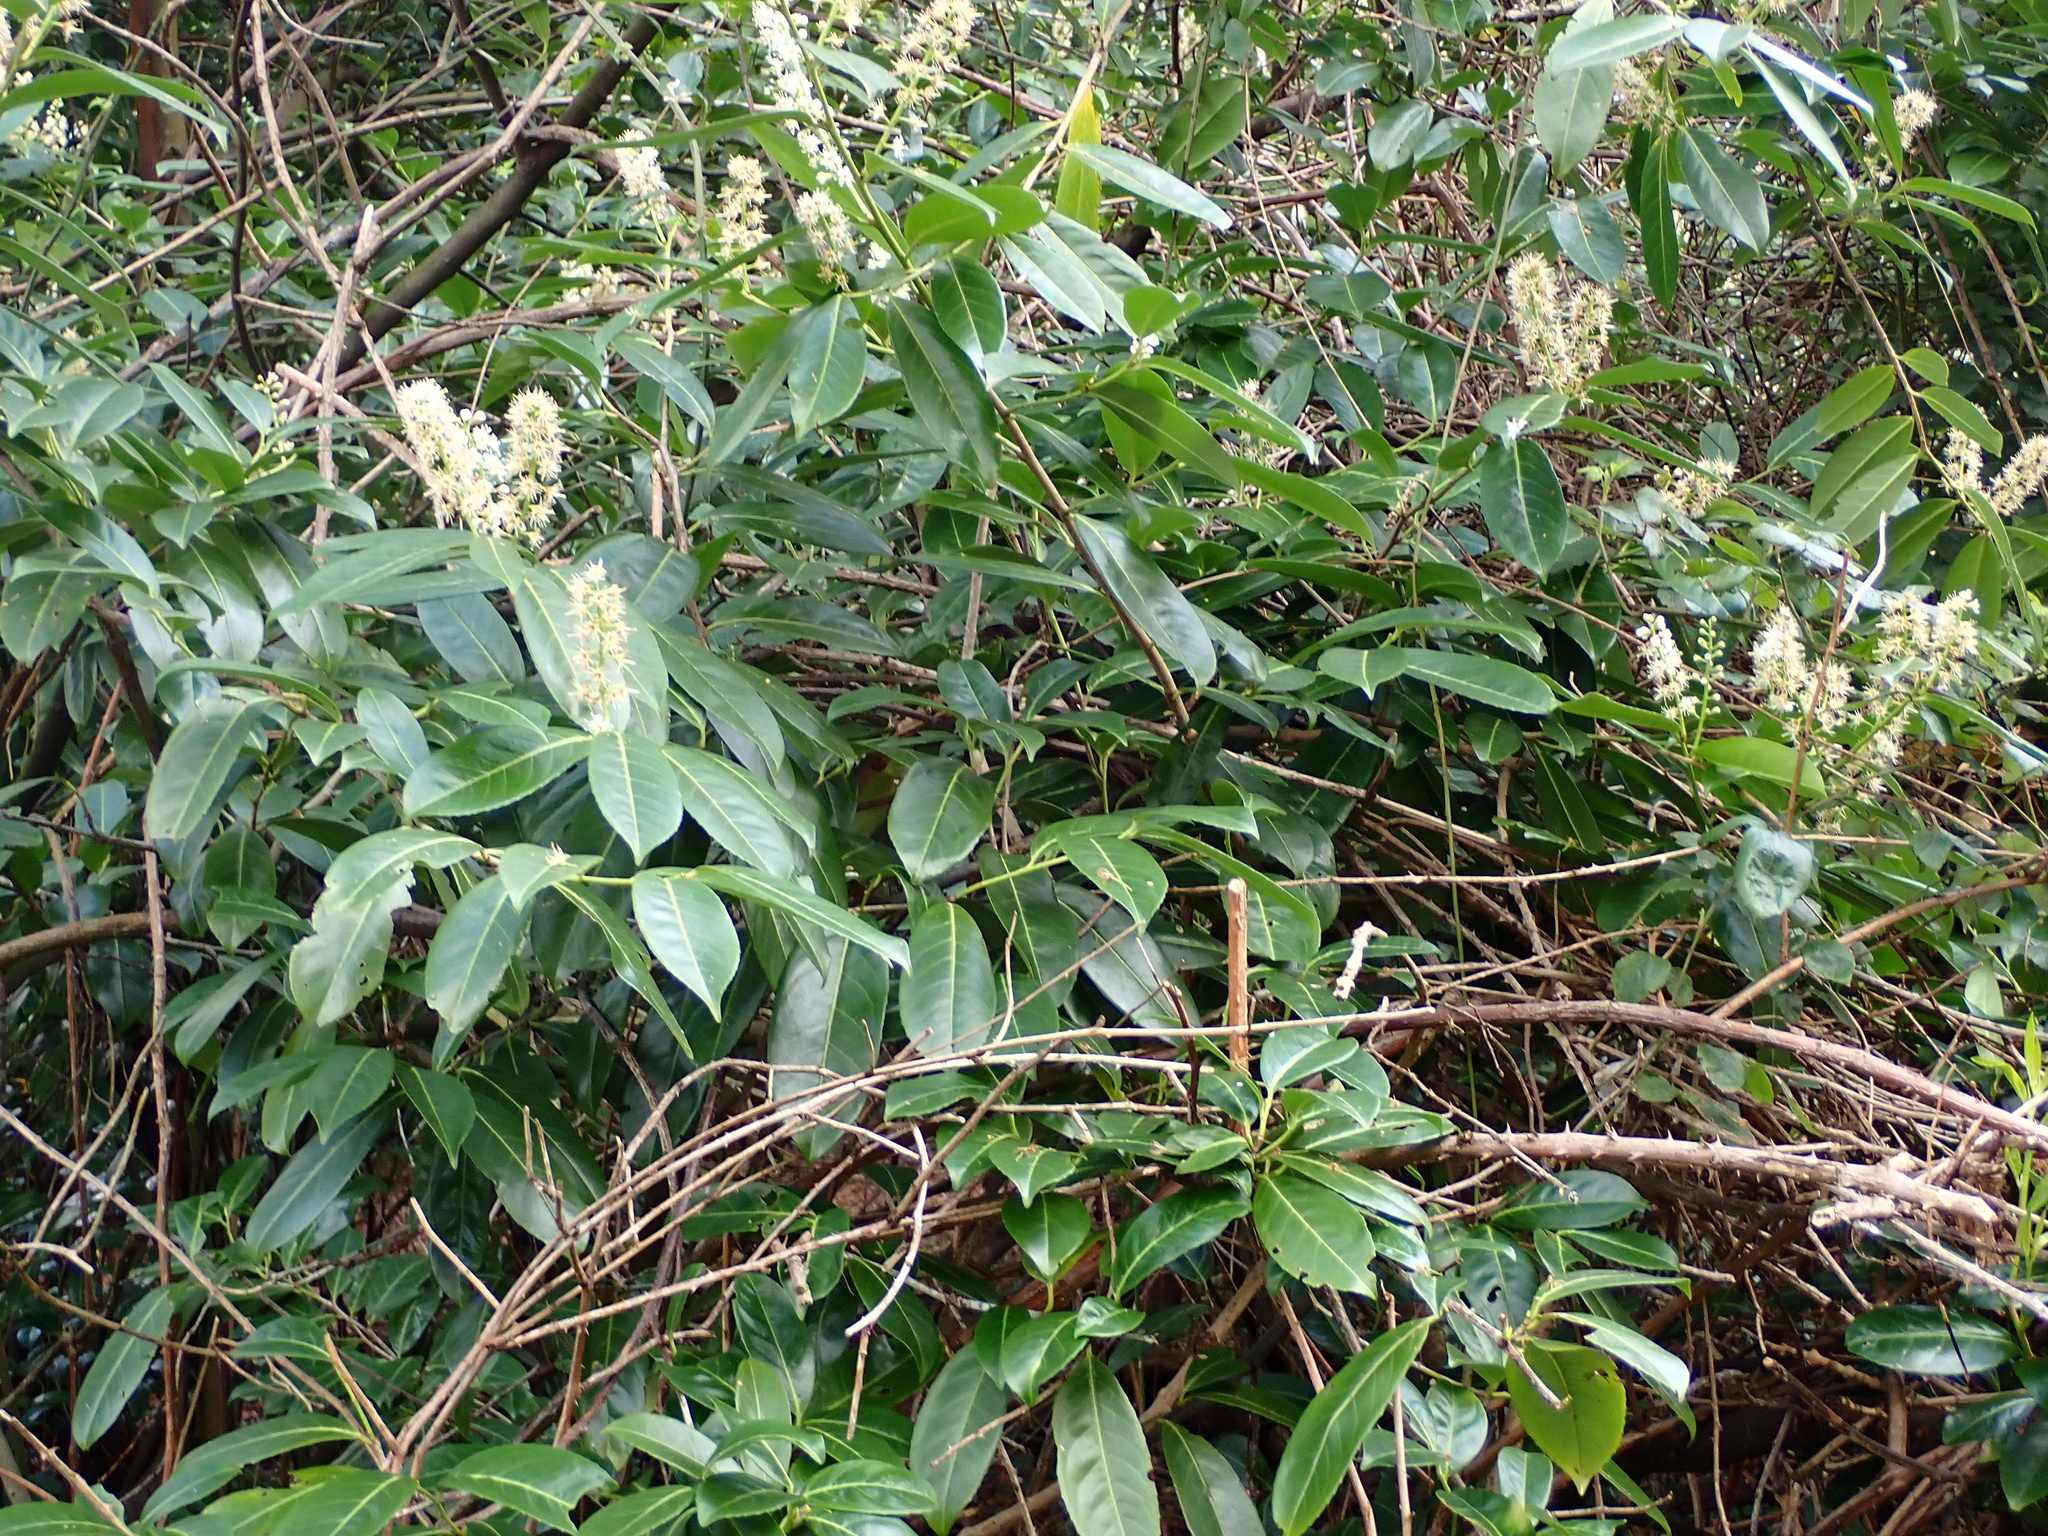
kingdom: Plantae
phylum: Tracheophyta
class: Magnoliopsida
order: Rosales
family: Rosaceae
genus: Prunus
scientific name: Prunus laurocerasus
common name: Cherry laurel
